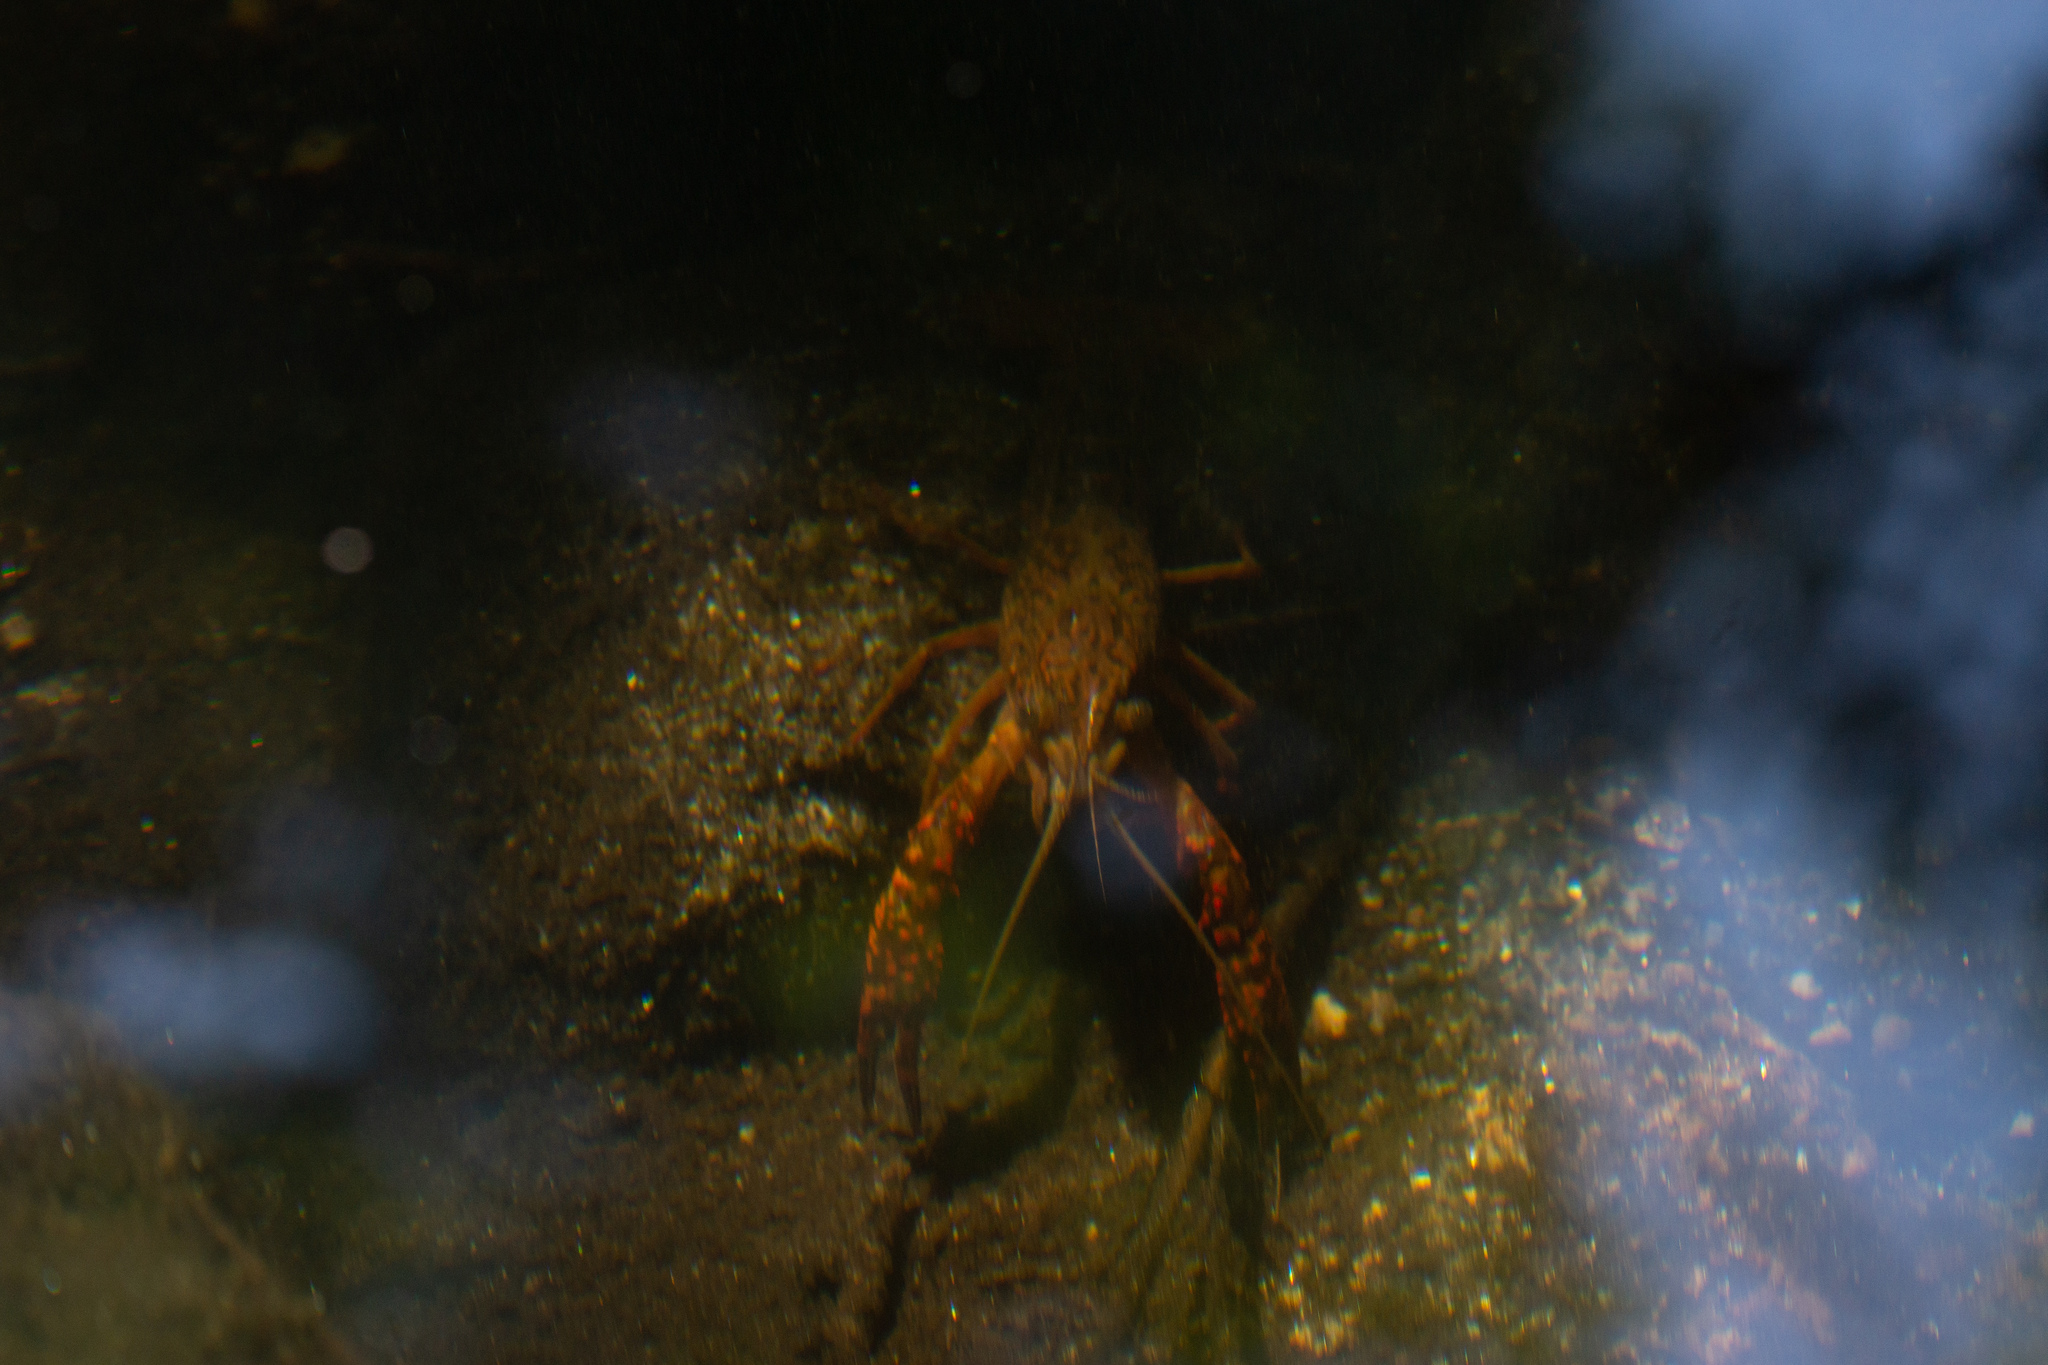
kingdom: Animalia
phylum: Arthropoda
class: Malacostraca
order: Decapoda
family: Cambaridae
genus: Procambarus
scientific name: Procambarus clarkii
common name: Red swamp crayfish
